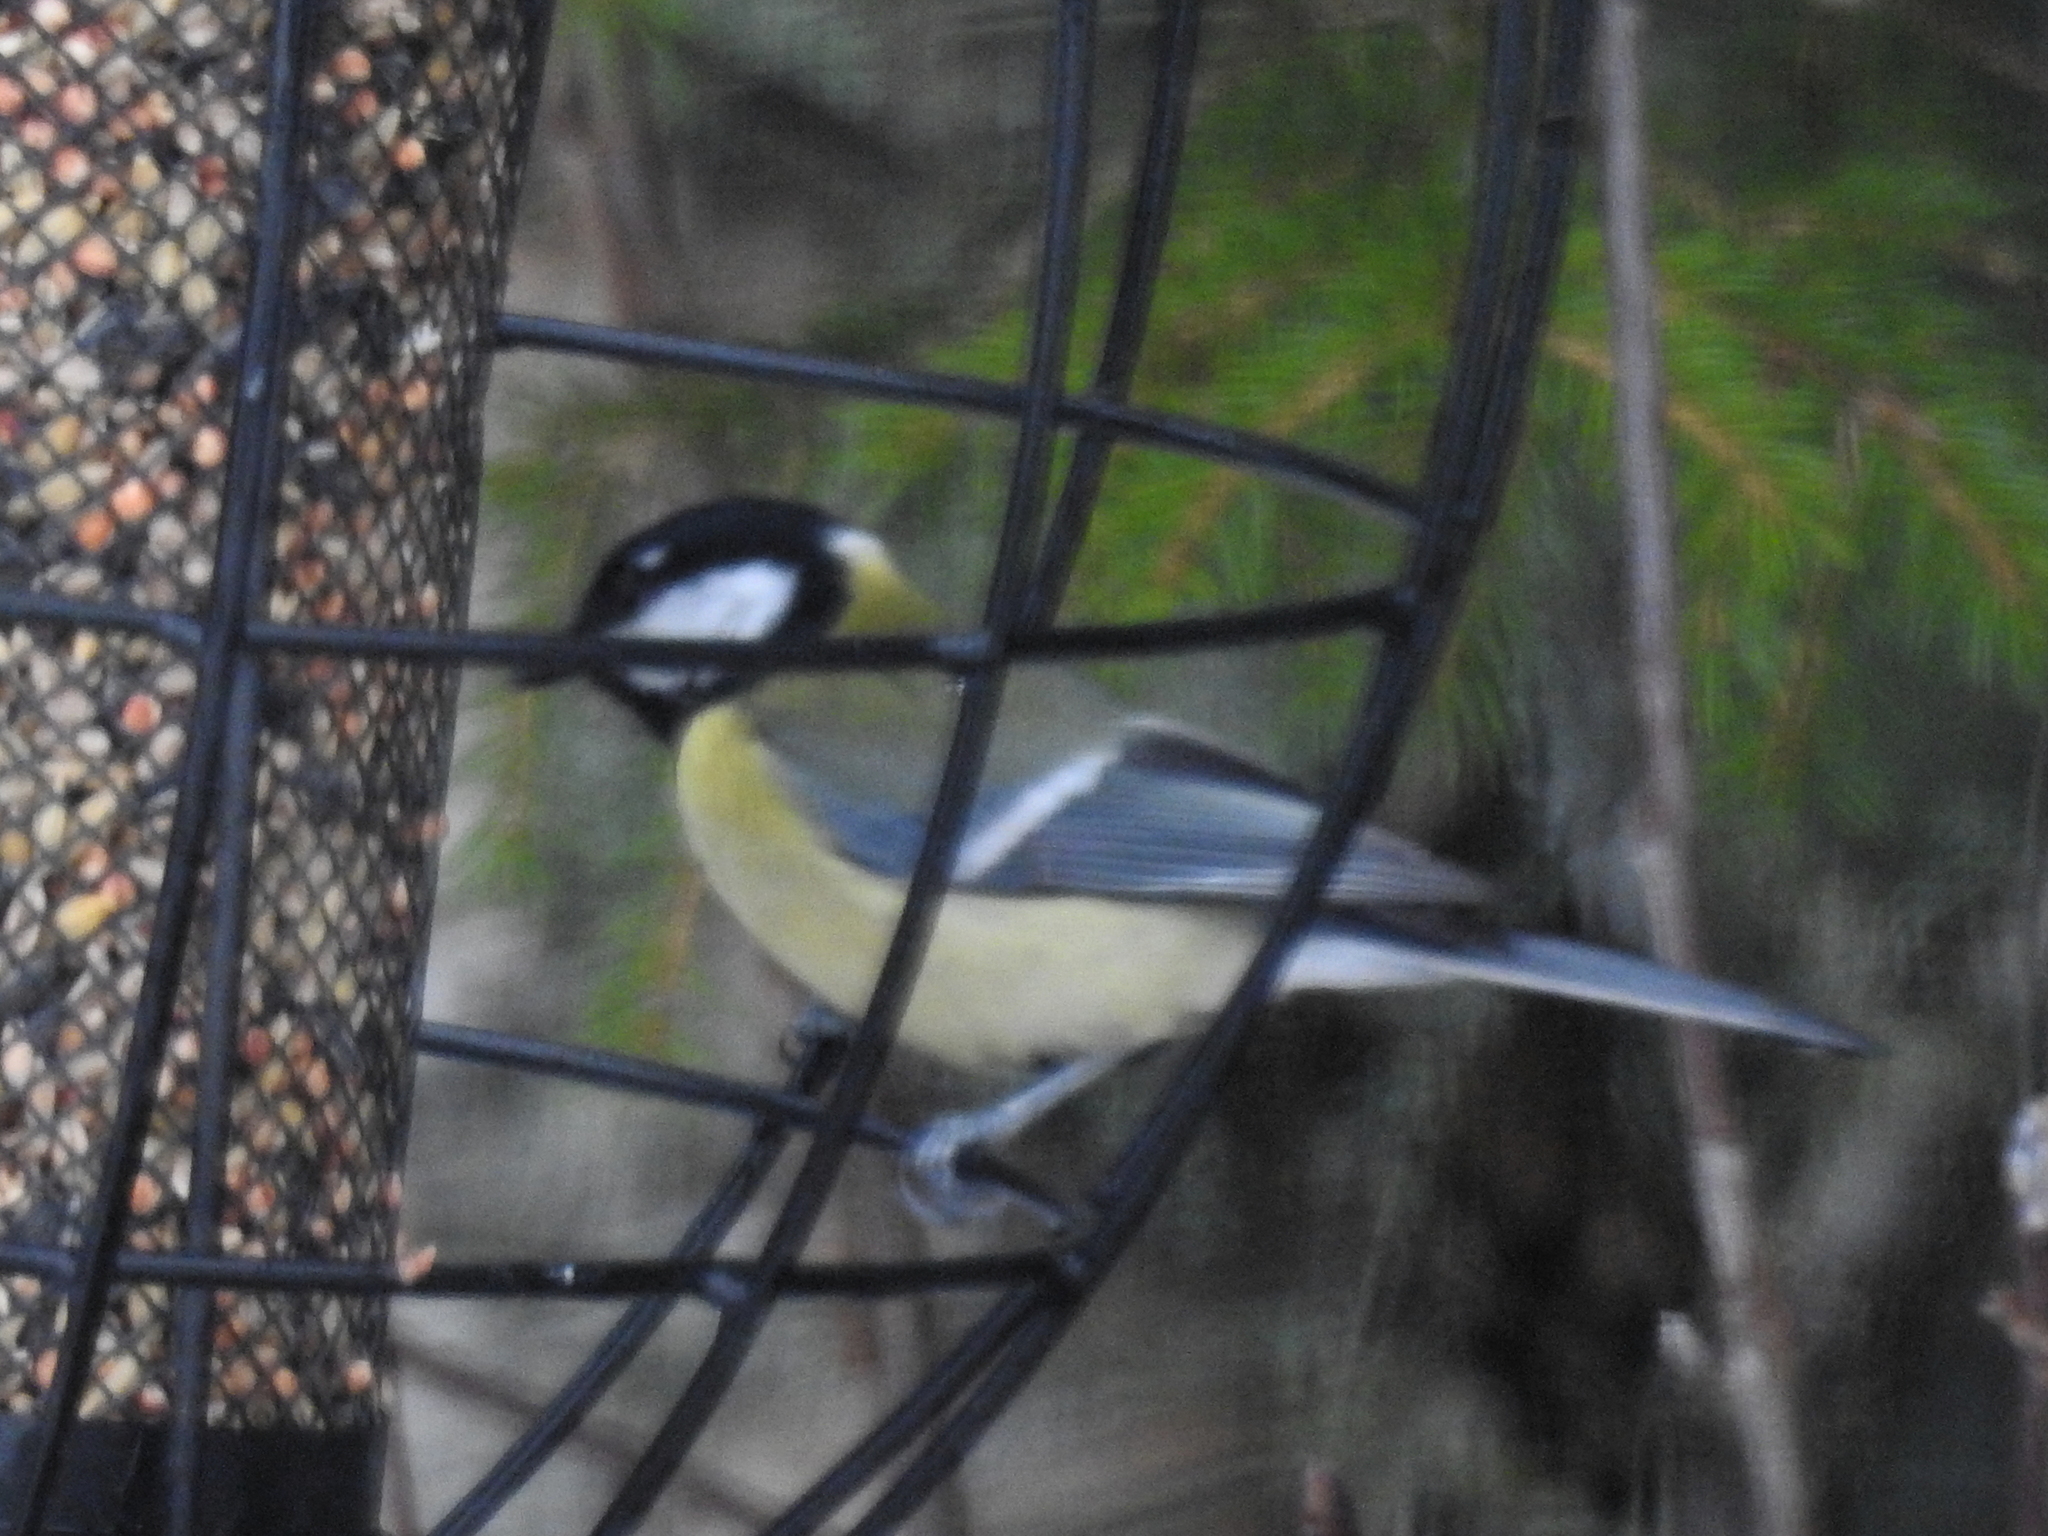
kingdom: Animalia
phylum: Chordata
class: Aves
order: Passeriformes
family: Paridae
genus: Parus
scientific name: Parus major
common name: Great tit
